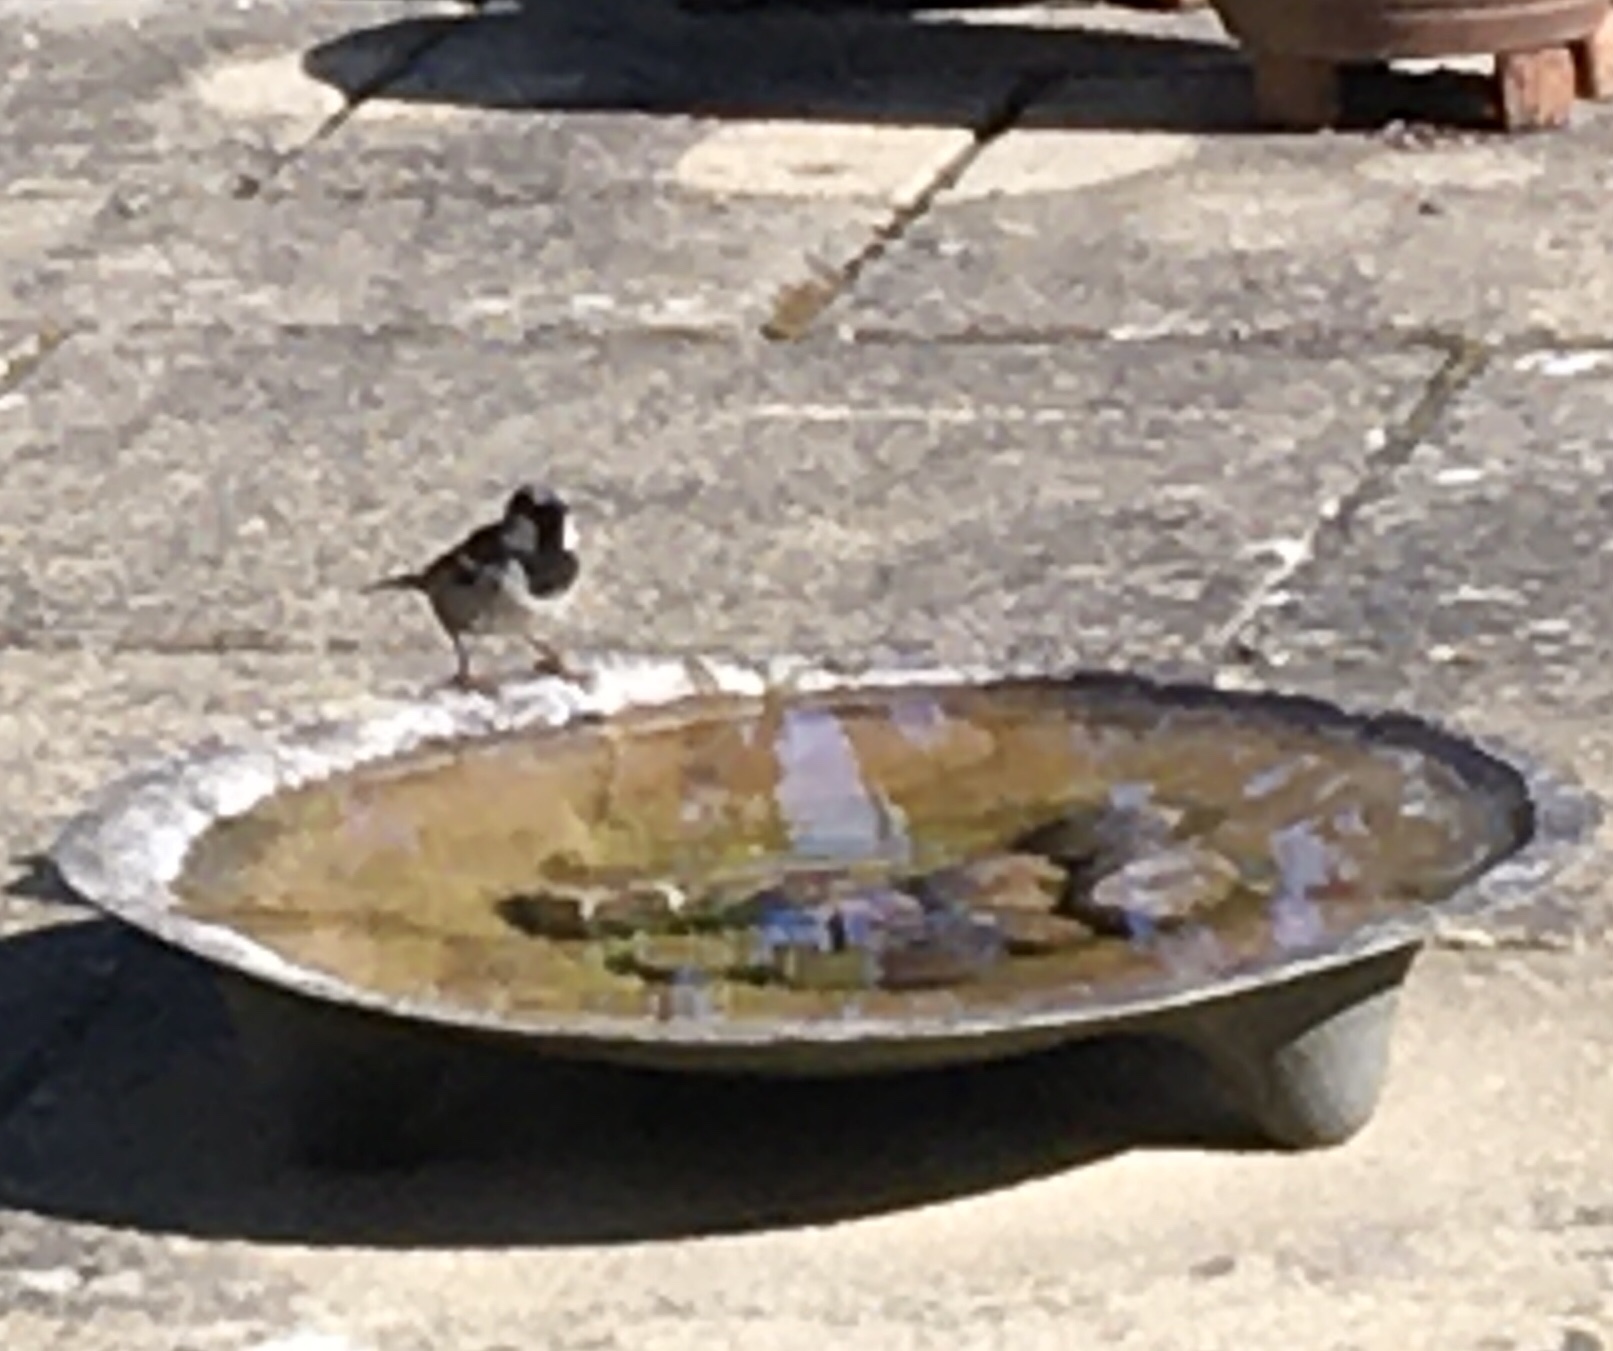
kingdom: Animalia
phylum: Chordata
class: Aves
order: Passeriformes
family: Passeridae
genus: Passer
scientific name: Passer domesticus
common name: House sparrow
